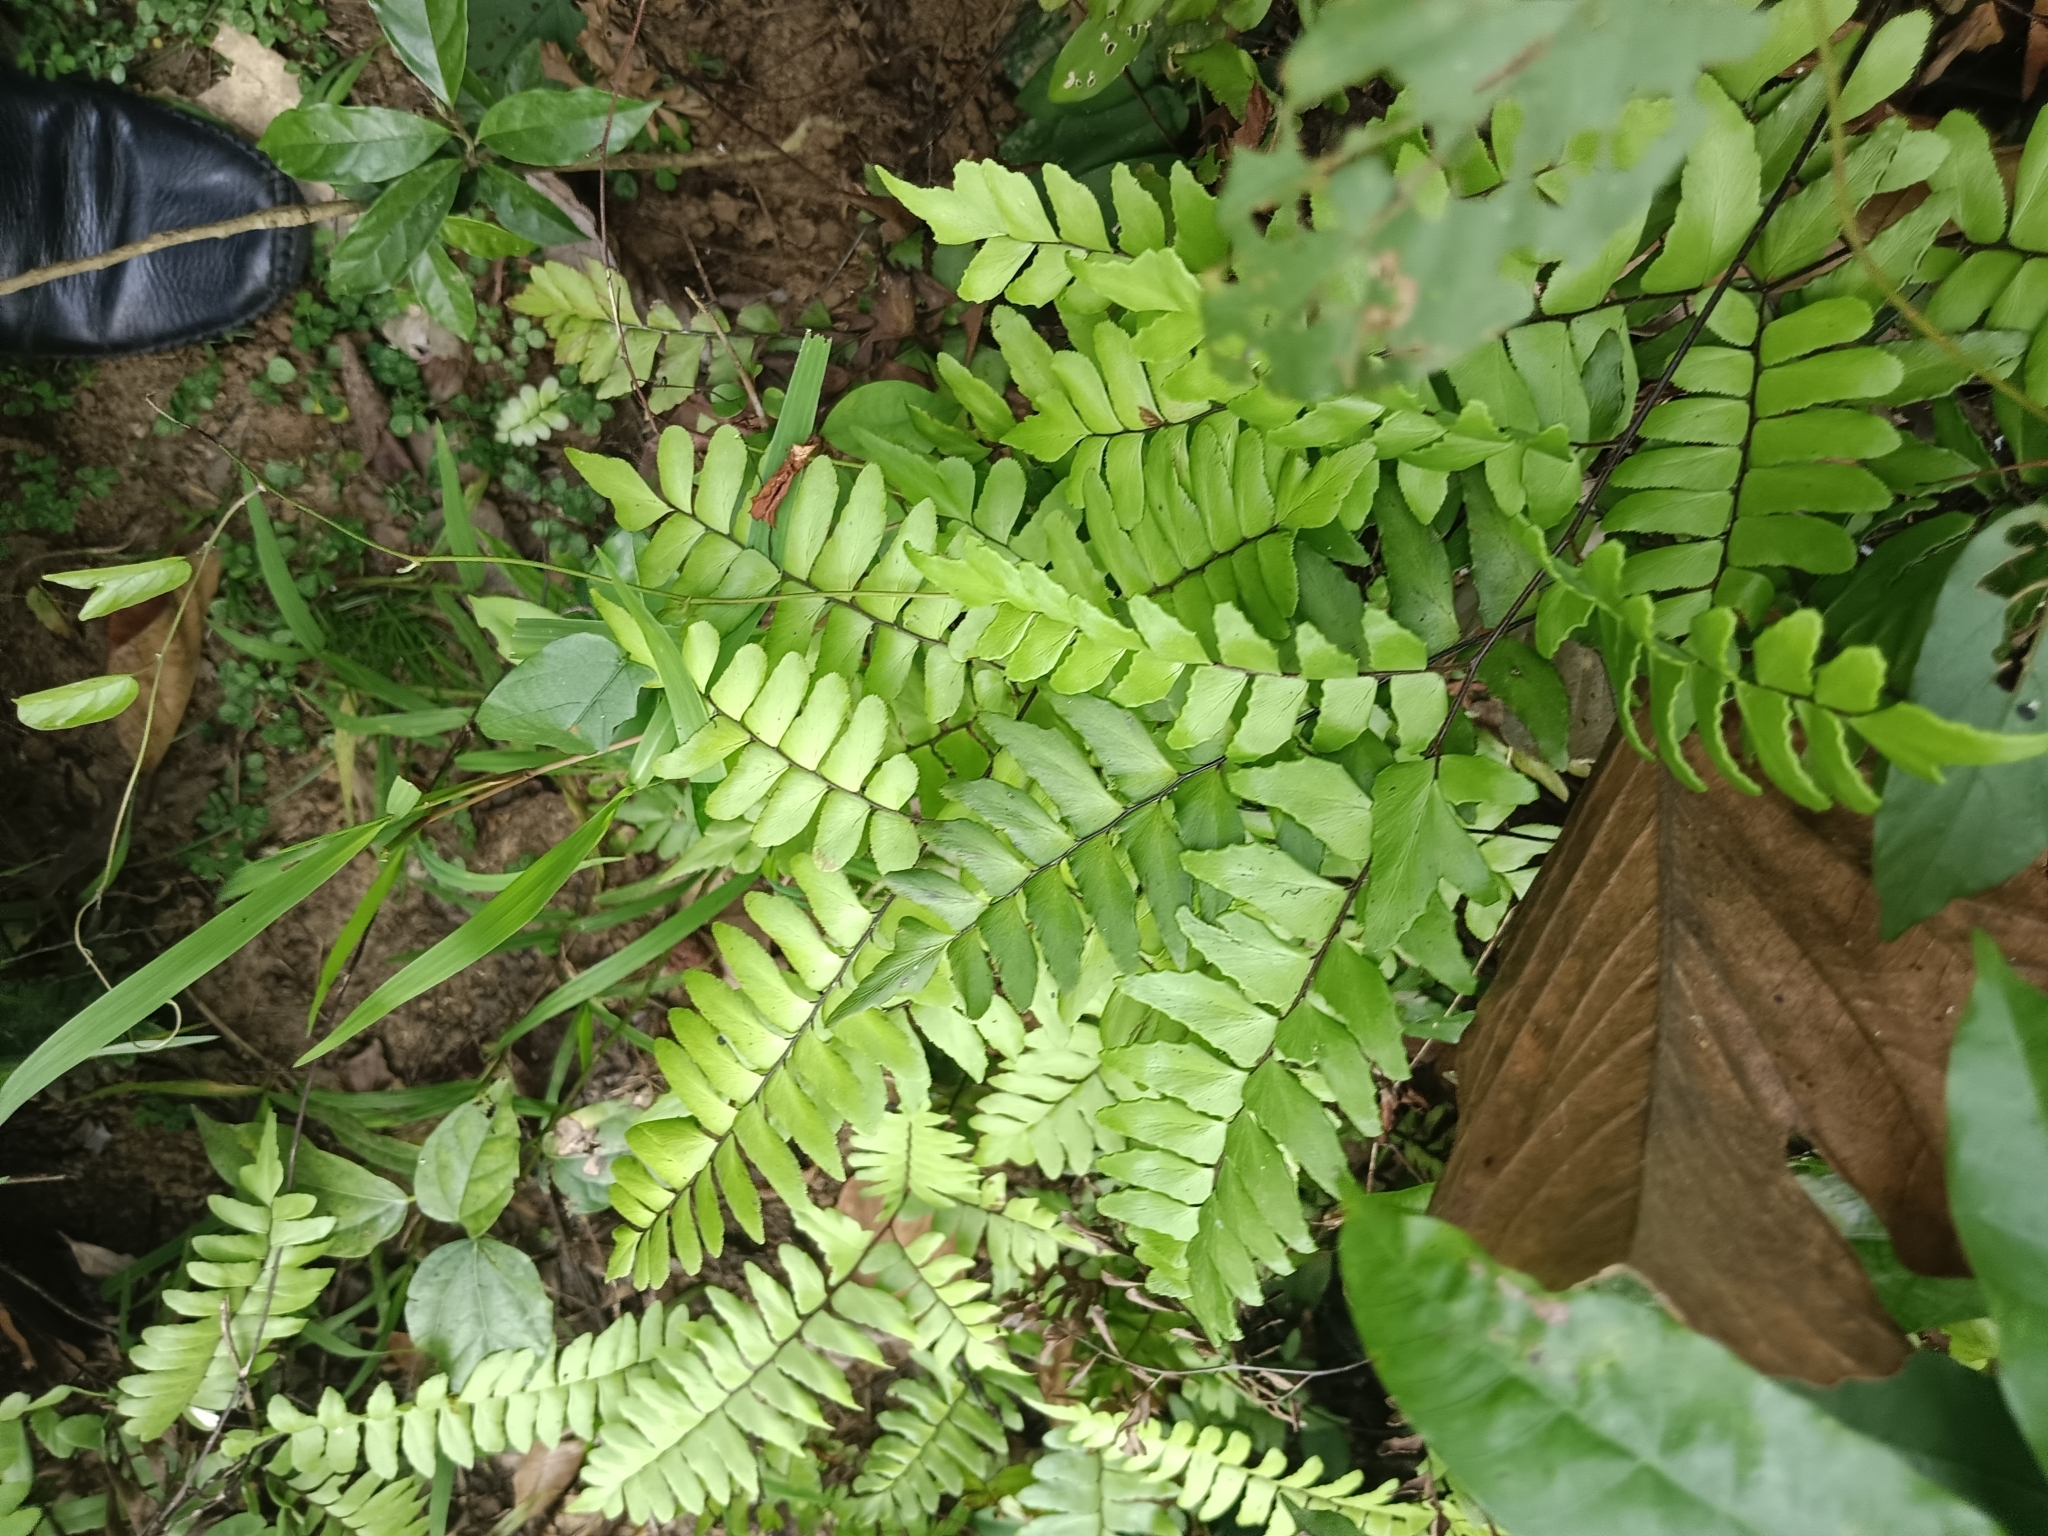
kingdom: Plantae
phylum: Tracheophyta
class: Polypodiopsida
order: Polypodiales
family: Pteridaceae
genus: Adiantum
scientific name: Adiantum latifolium
